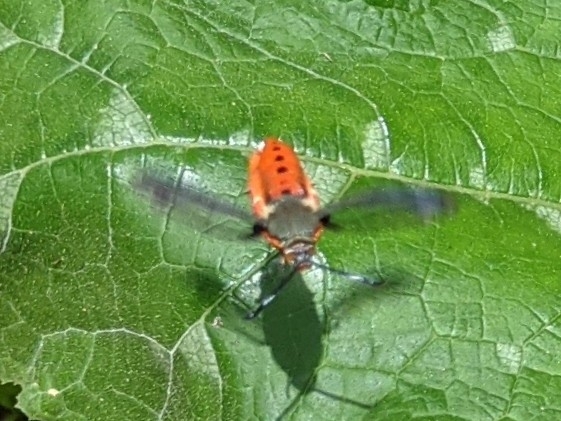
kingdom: Animalia
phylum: Arthropoda
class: Insecta
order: Lepidoptera
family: Sesiidae
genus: Eichlinia
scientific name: Eichlinia calabaza
